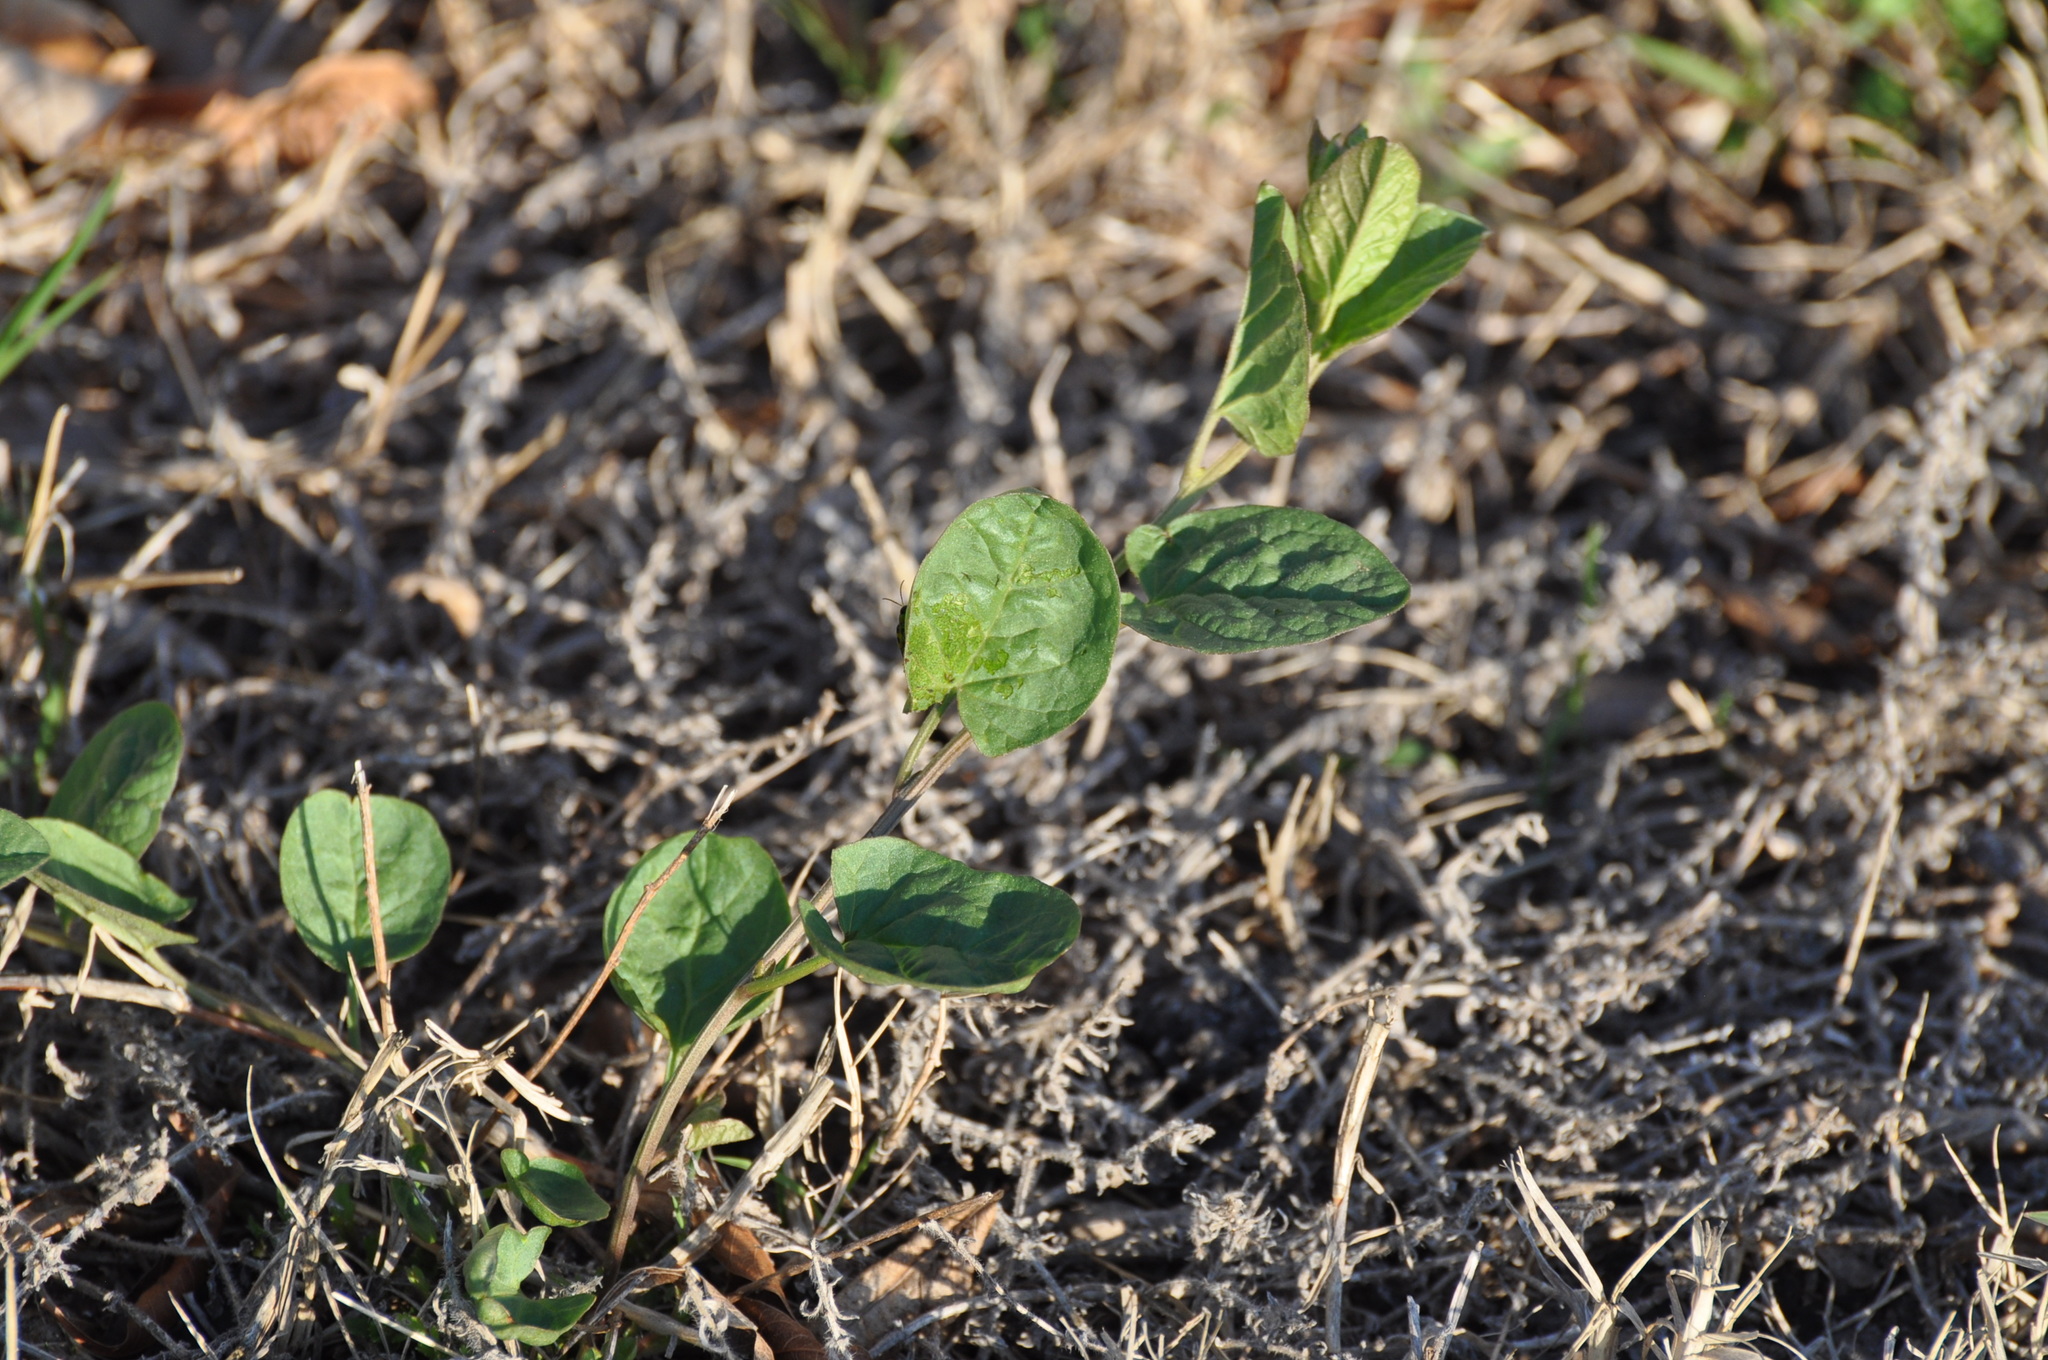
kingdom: Plantae
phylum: Tracheophyta
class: Magnoliopsida
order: Solanales
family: Convolvulaceae
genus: Convolvulus
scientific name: Convolvulus arvensis
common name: Field bindweed
